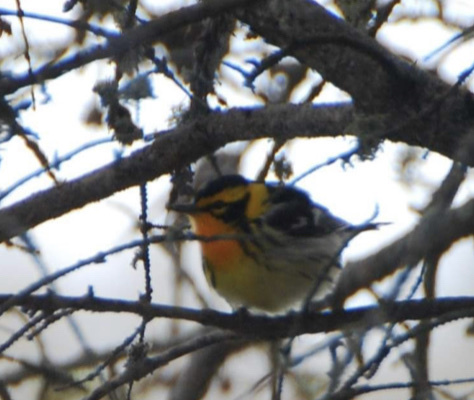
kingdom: Animalia
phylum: Chordata
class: Aves
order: Passeriformes
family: Parulidae
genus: Setophaga
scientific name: Setophaga fusca
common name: Blackburnian warbler
